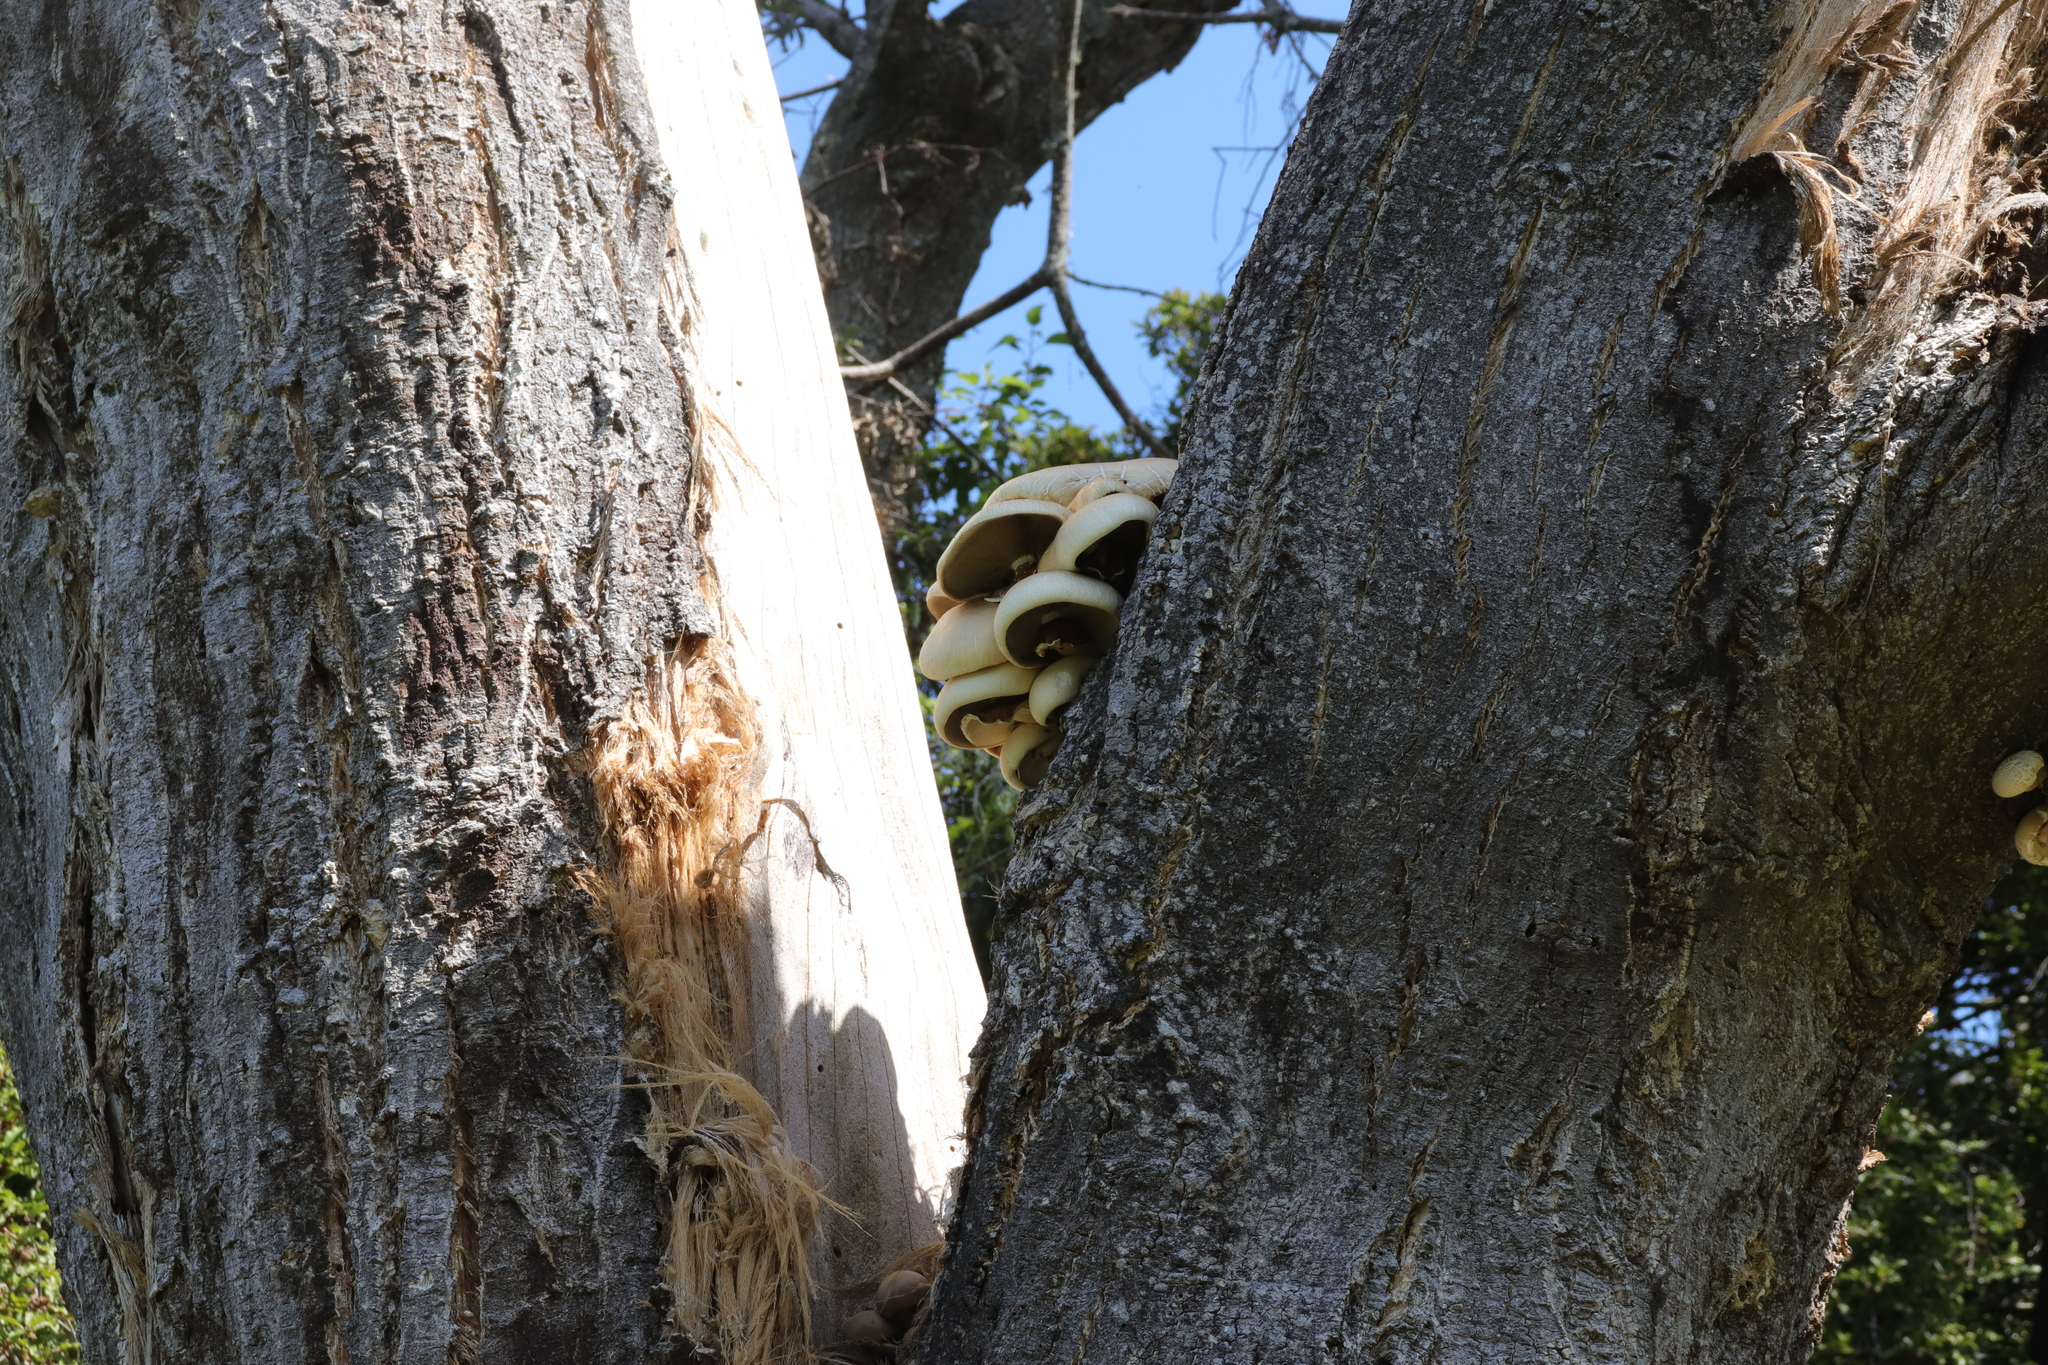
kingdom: Fungi
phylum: Basidiomycota
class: Agaricomycetes
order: Agaricales
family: Tubariaceae
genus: Cyclocybe
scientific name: Cyclocybe parasitica
